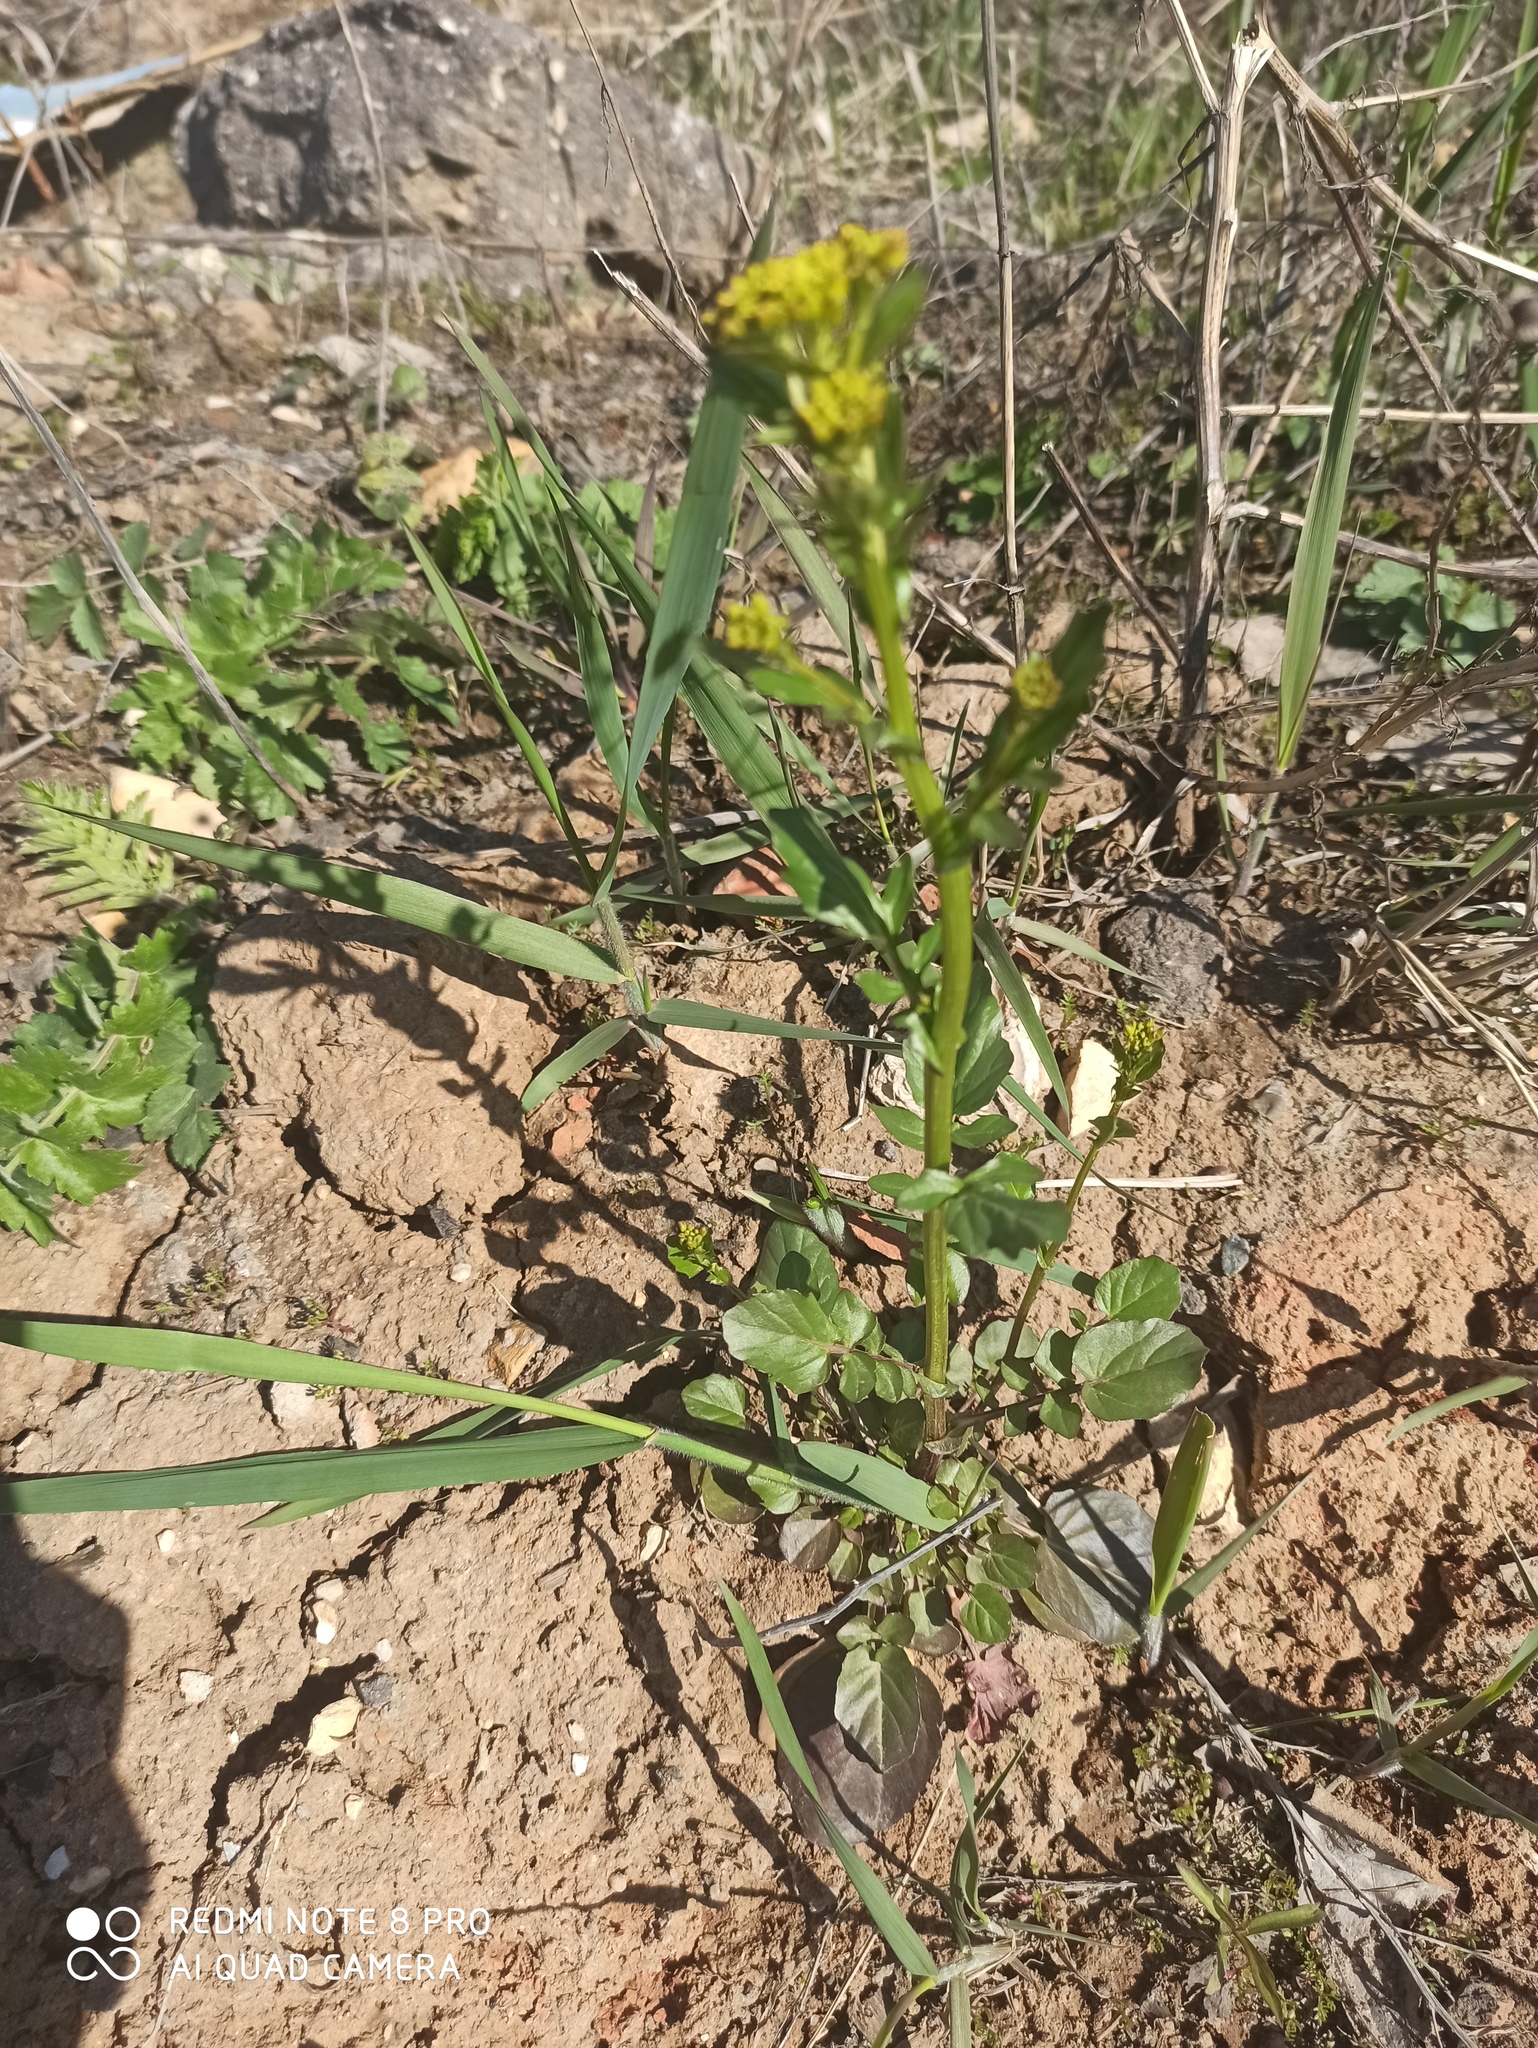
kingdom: Plantae
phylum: Tracheophyta
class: Magnoliopsida
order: Brassicales
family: Brassicaceae
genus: Barbarea
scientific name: Barbarea vulgaris
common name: Cressy-greens
